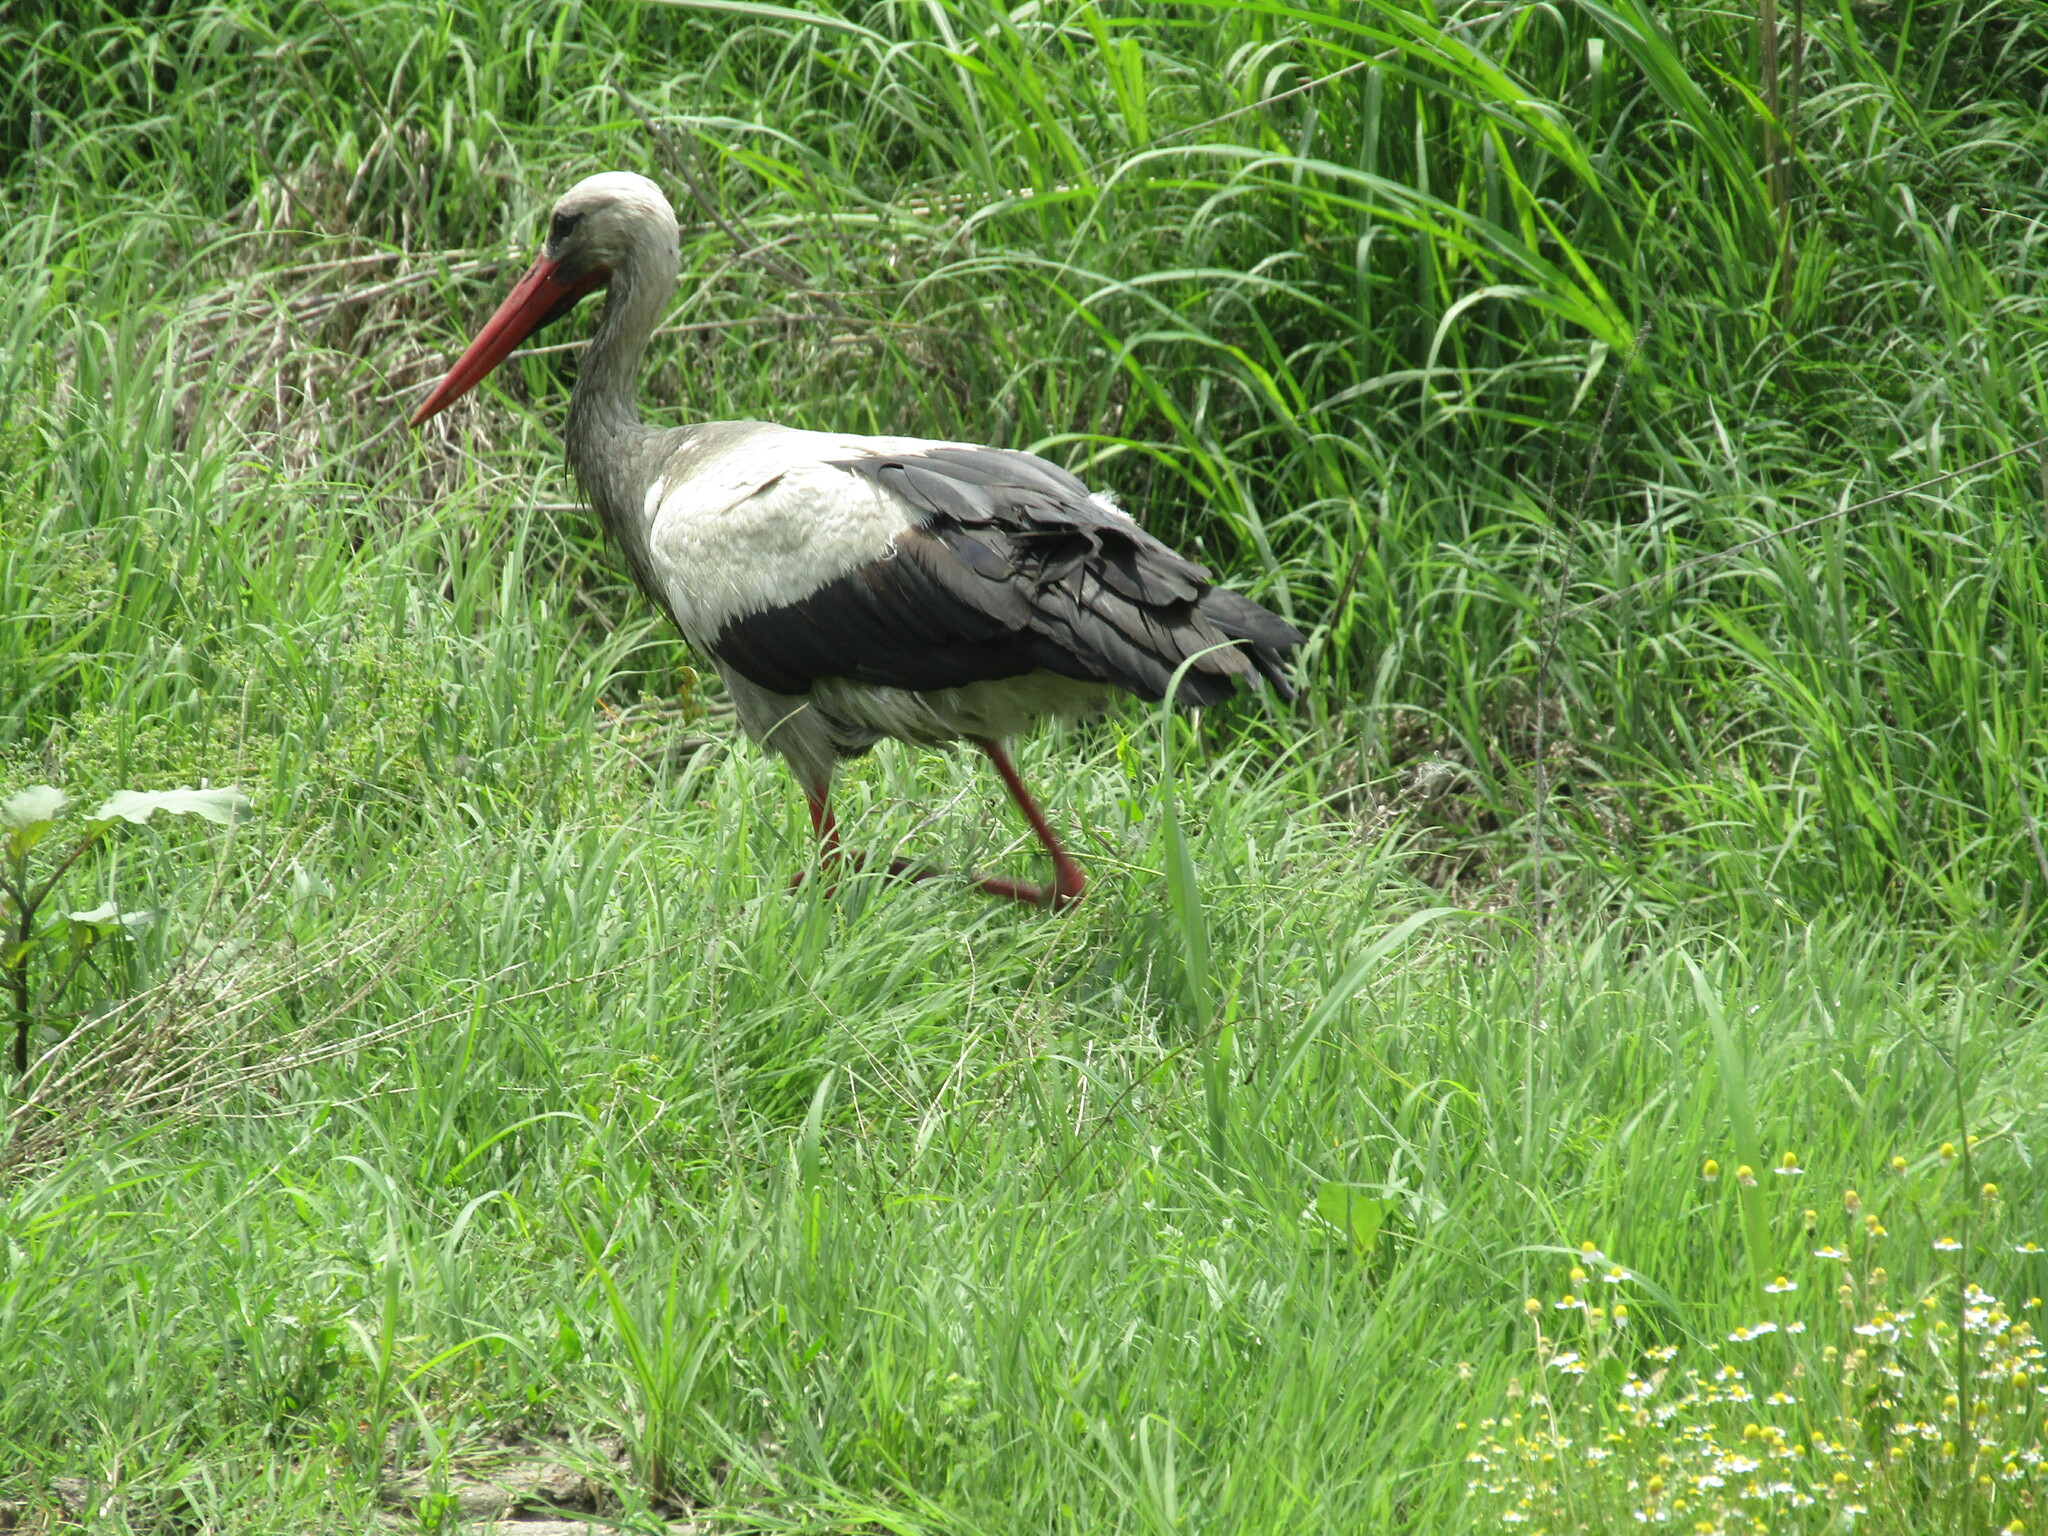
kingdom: Animalia
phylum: Chordata
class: Aves
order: Ciconiiformes
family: Ciconiidae
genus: Ciconia
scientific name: Ciconia ciconia
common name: White stork
